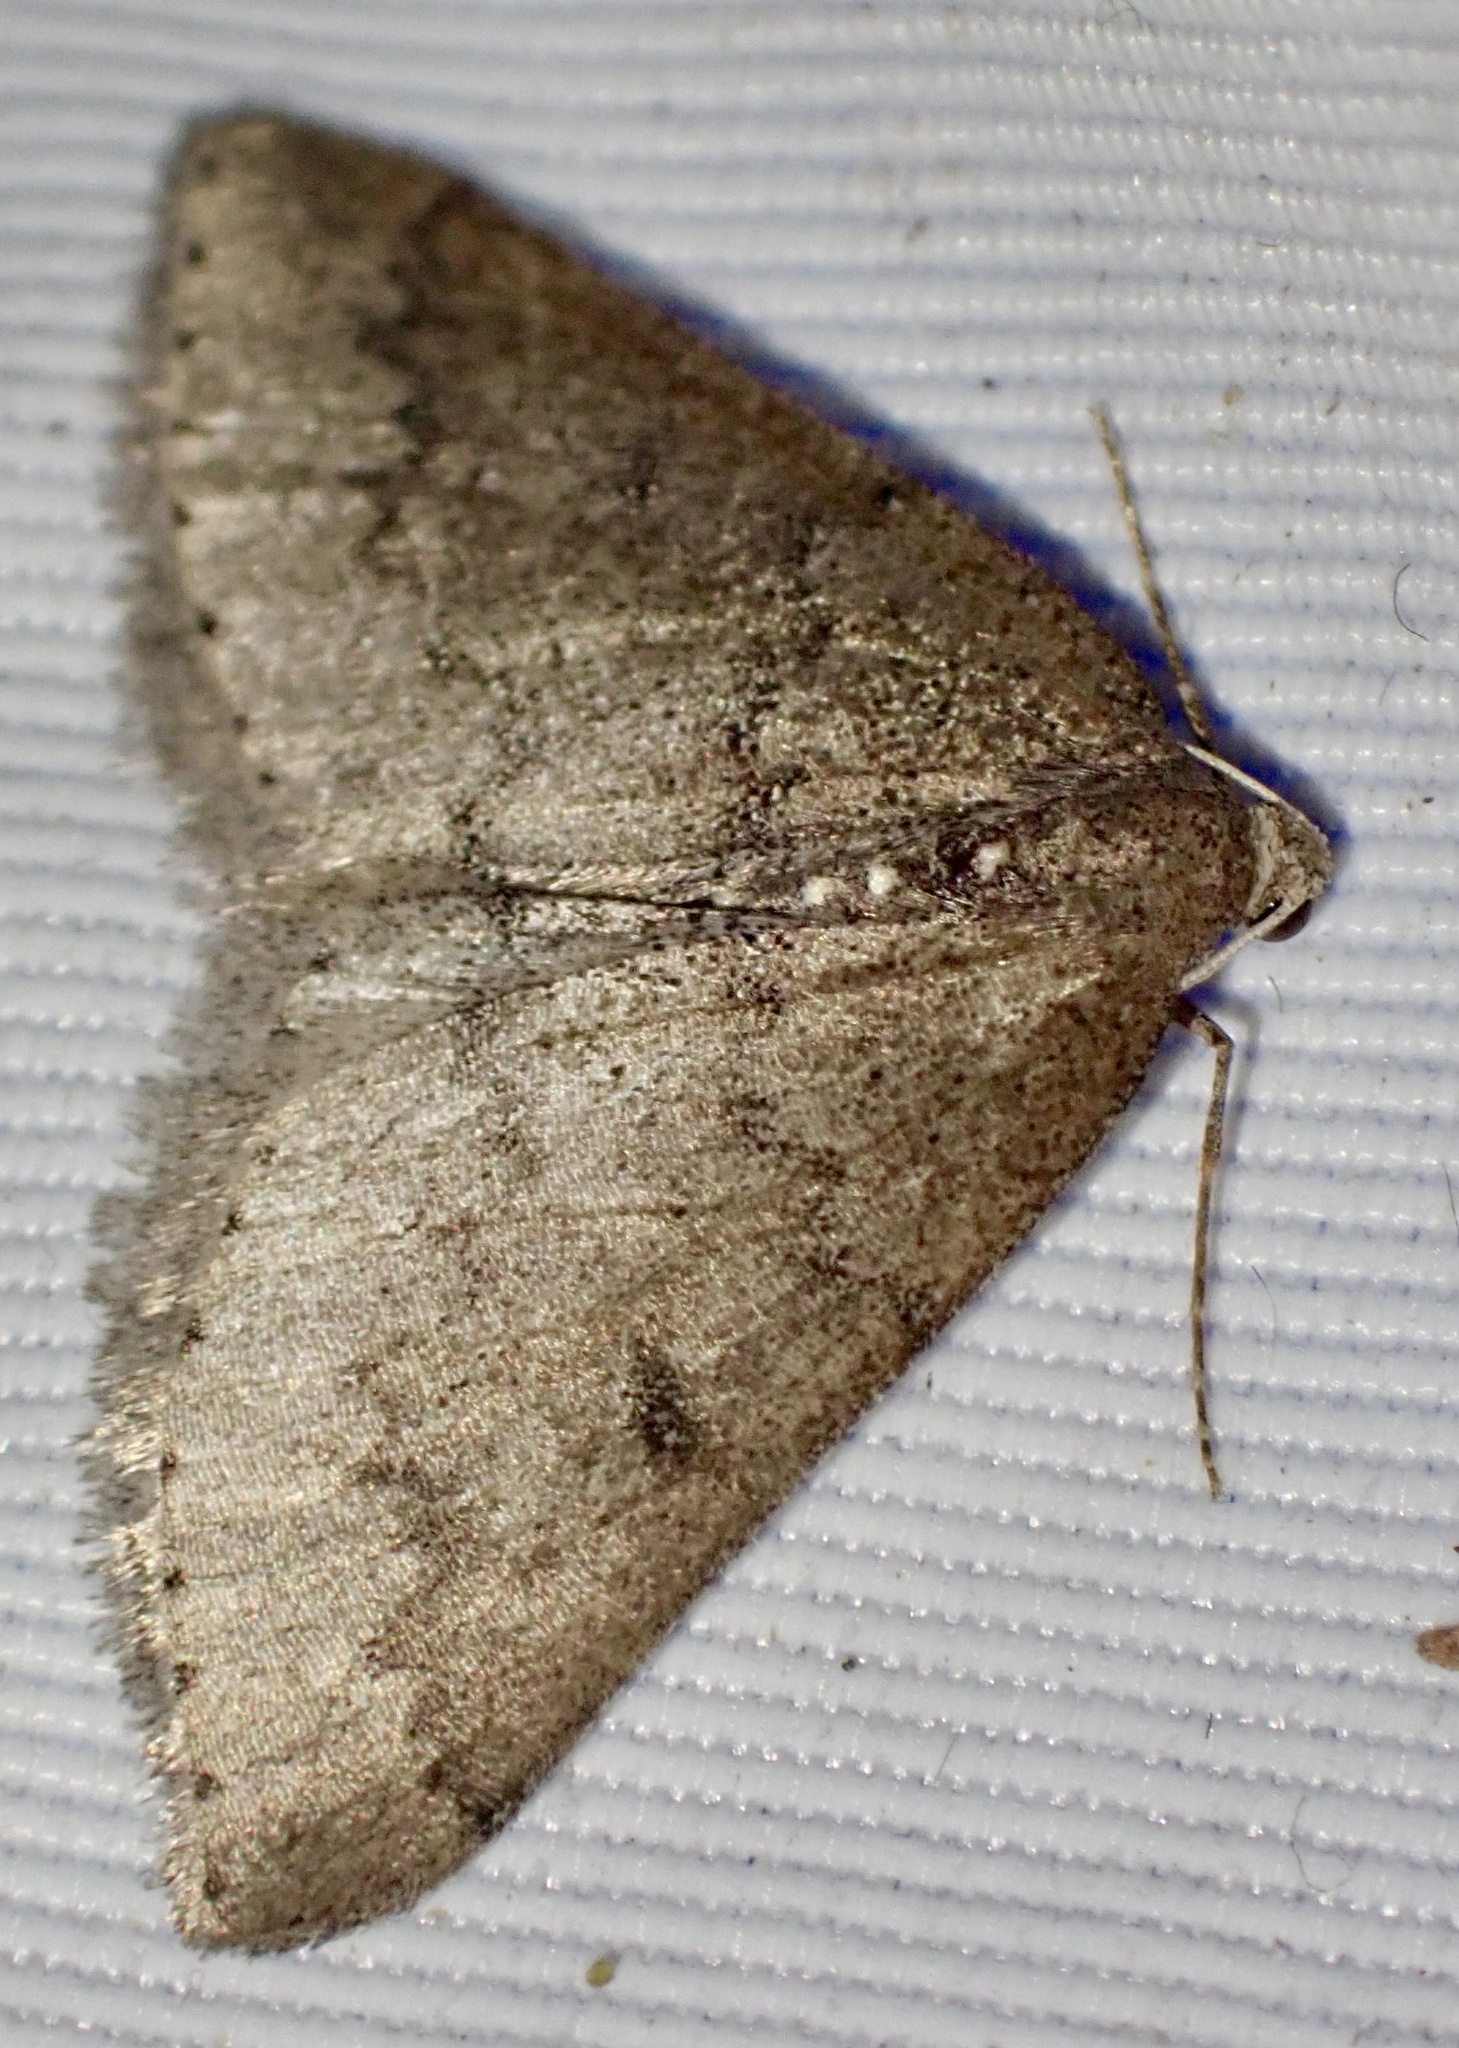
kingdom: Animalia
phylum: Arthropoda
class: Insecta
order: Lepidoptera
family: Geometridae
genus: Aleucis
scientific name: Aleucis distinctata
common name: Sloe carpet
